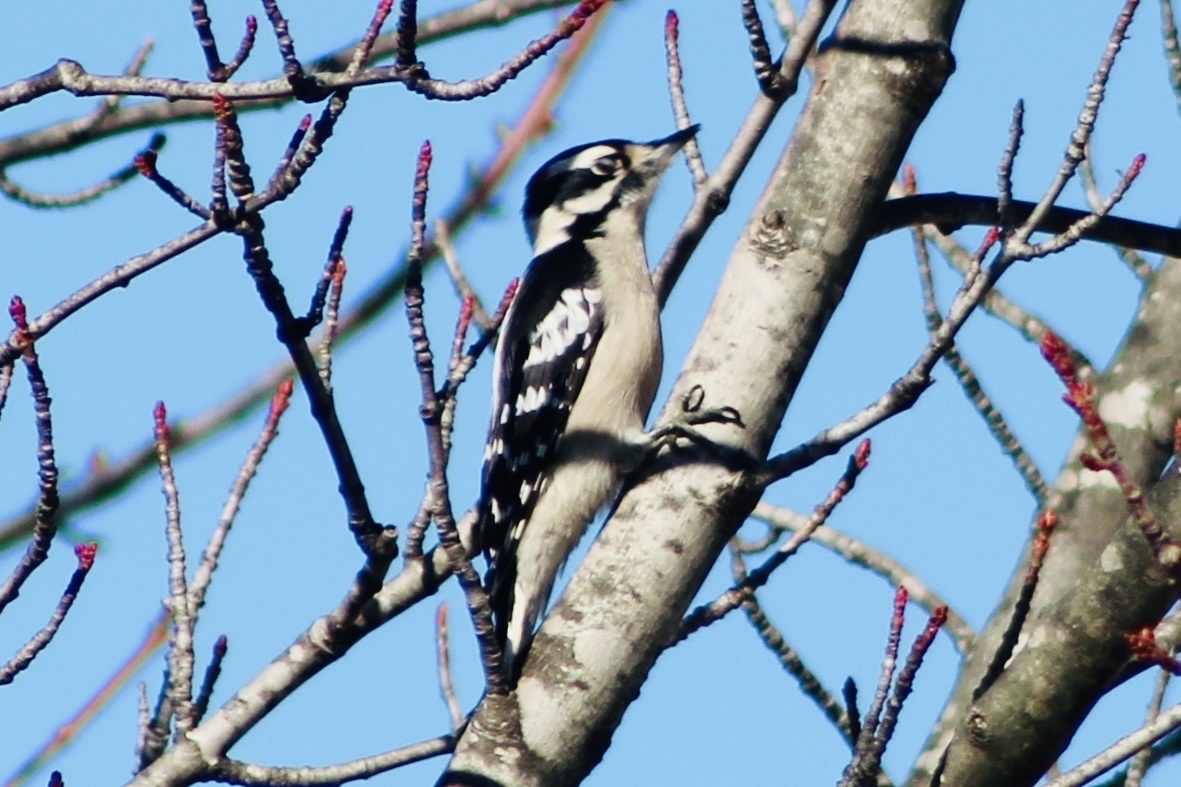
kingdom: Animalia
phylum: Chordata
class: Aves
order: Piciformes
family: Picidae
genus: Dryobates
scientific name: Dryobates pubescens
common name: Downy woodpecker
